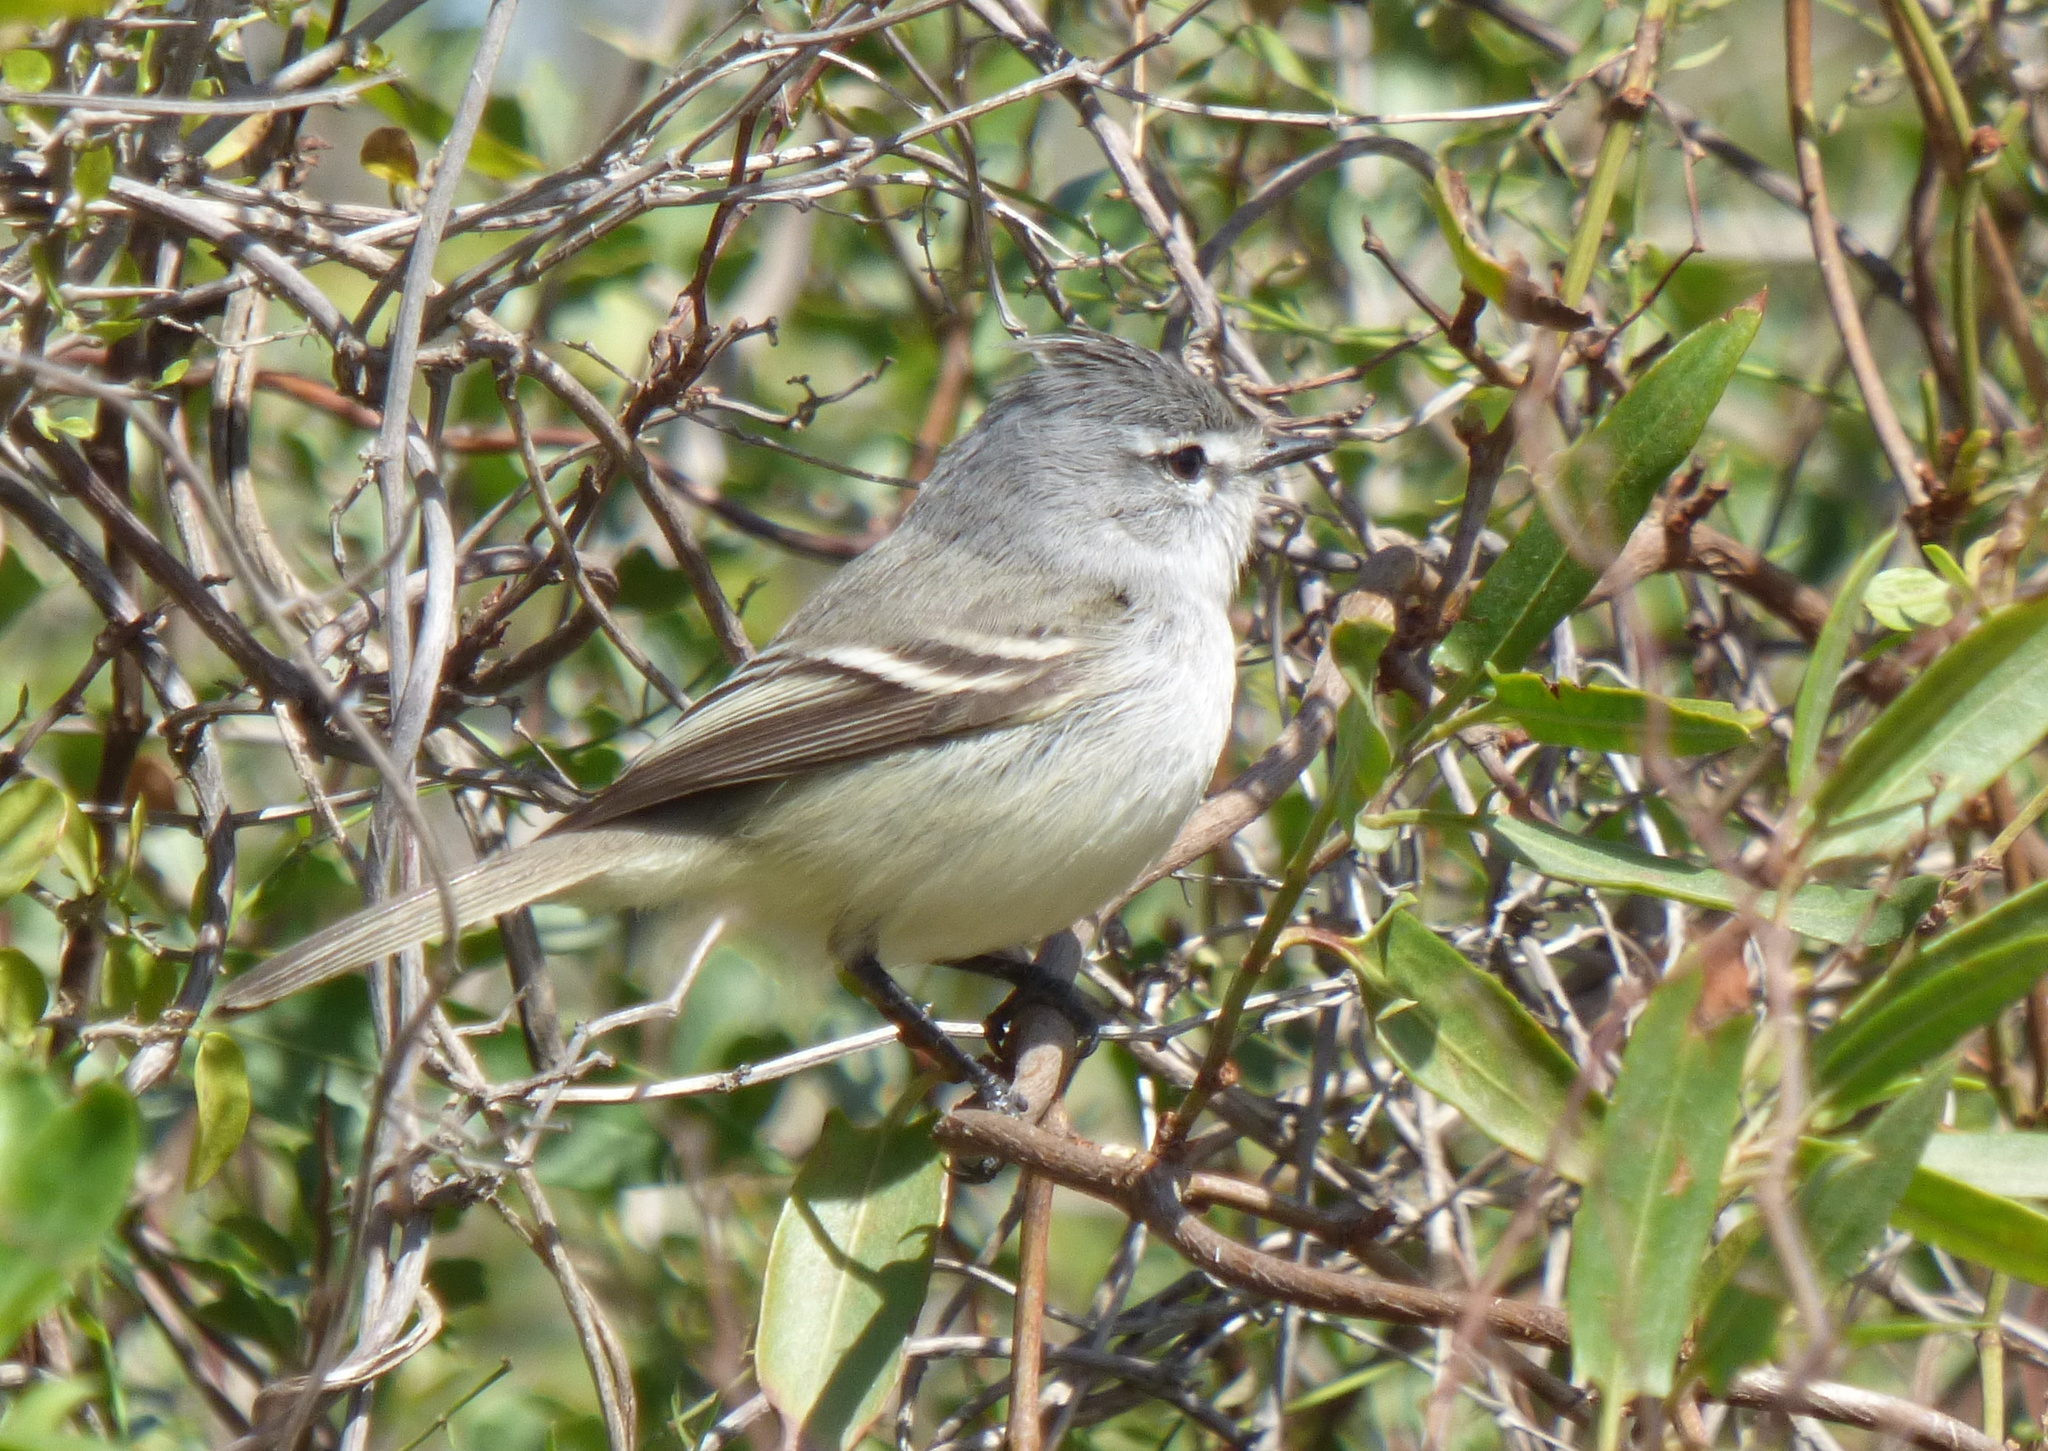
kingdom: Animalia
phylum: Chordata
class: Aves
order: Passeriformes
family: Tyrannidae
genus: Serpophaga
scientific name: Serpophaga subcristata
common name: White-crested tyrannulet
